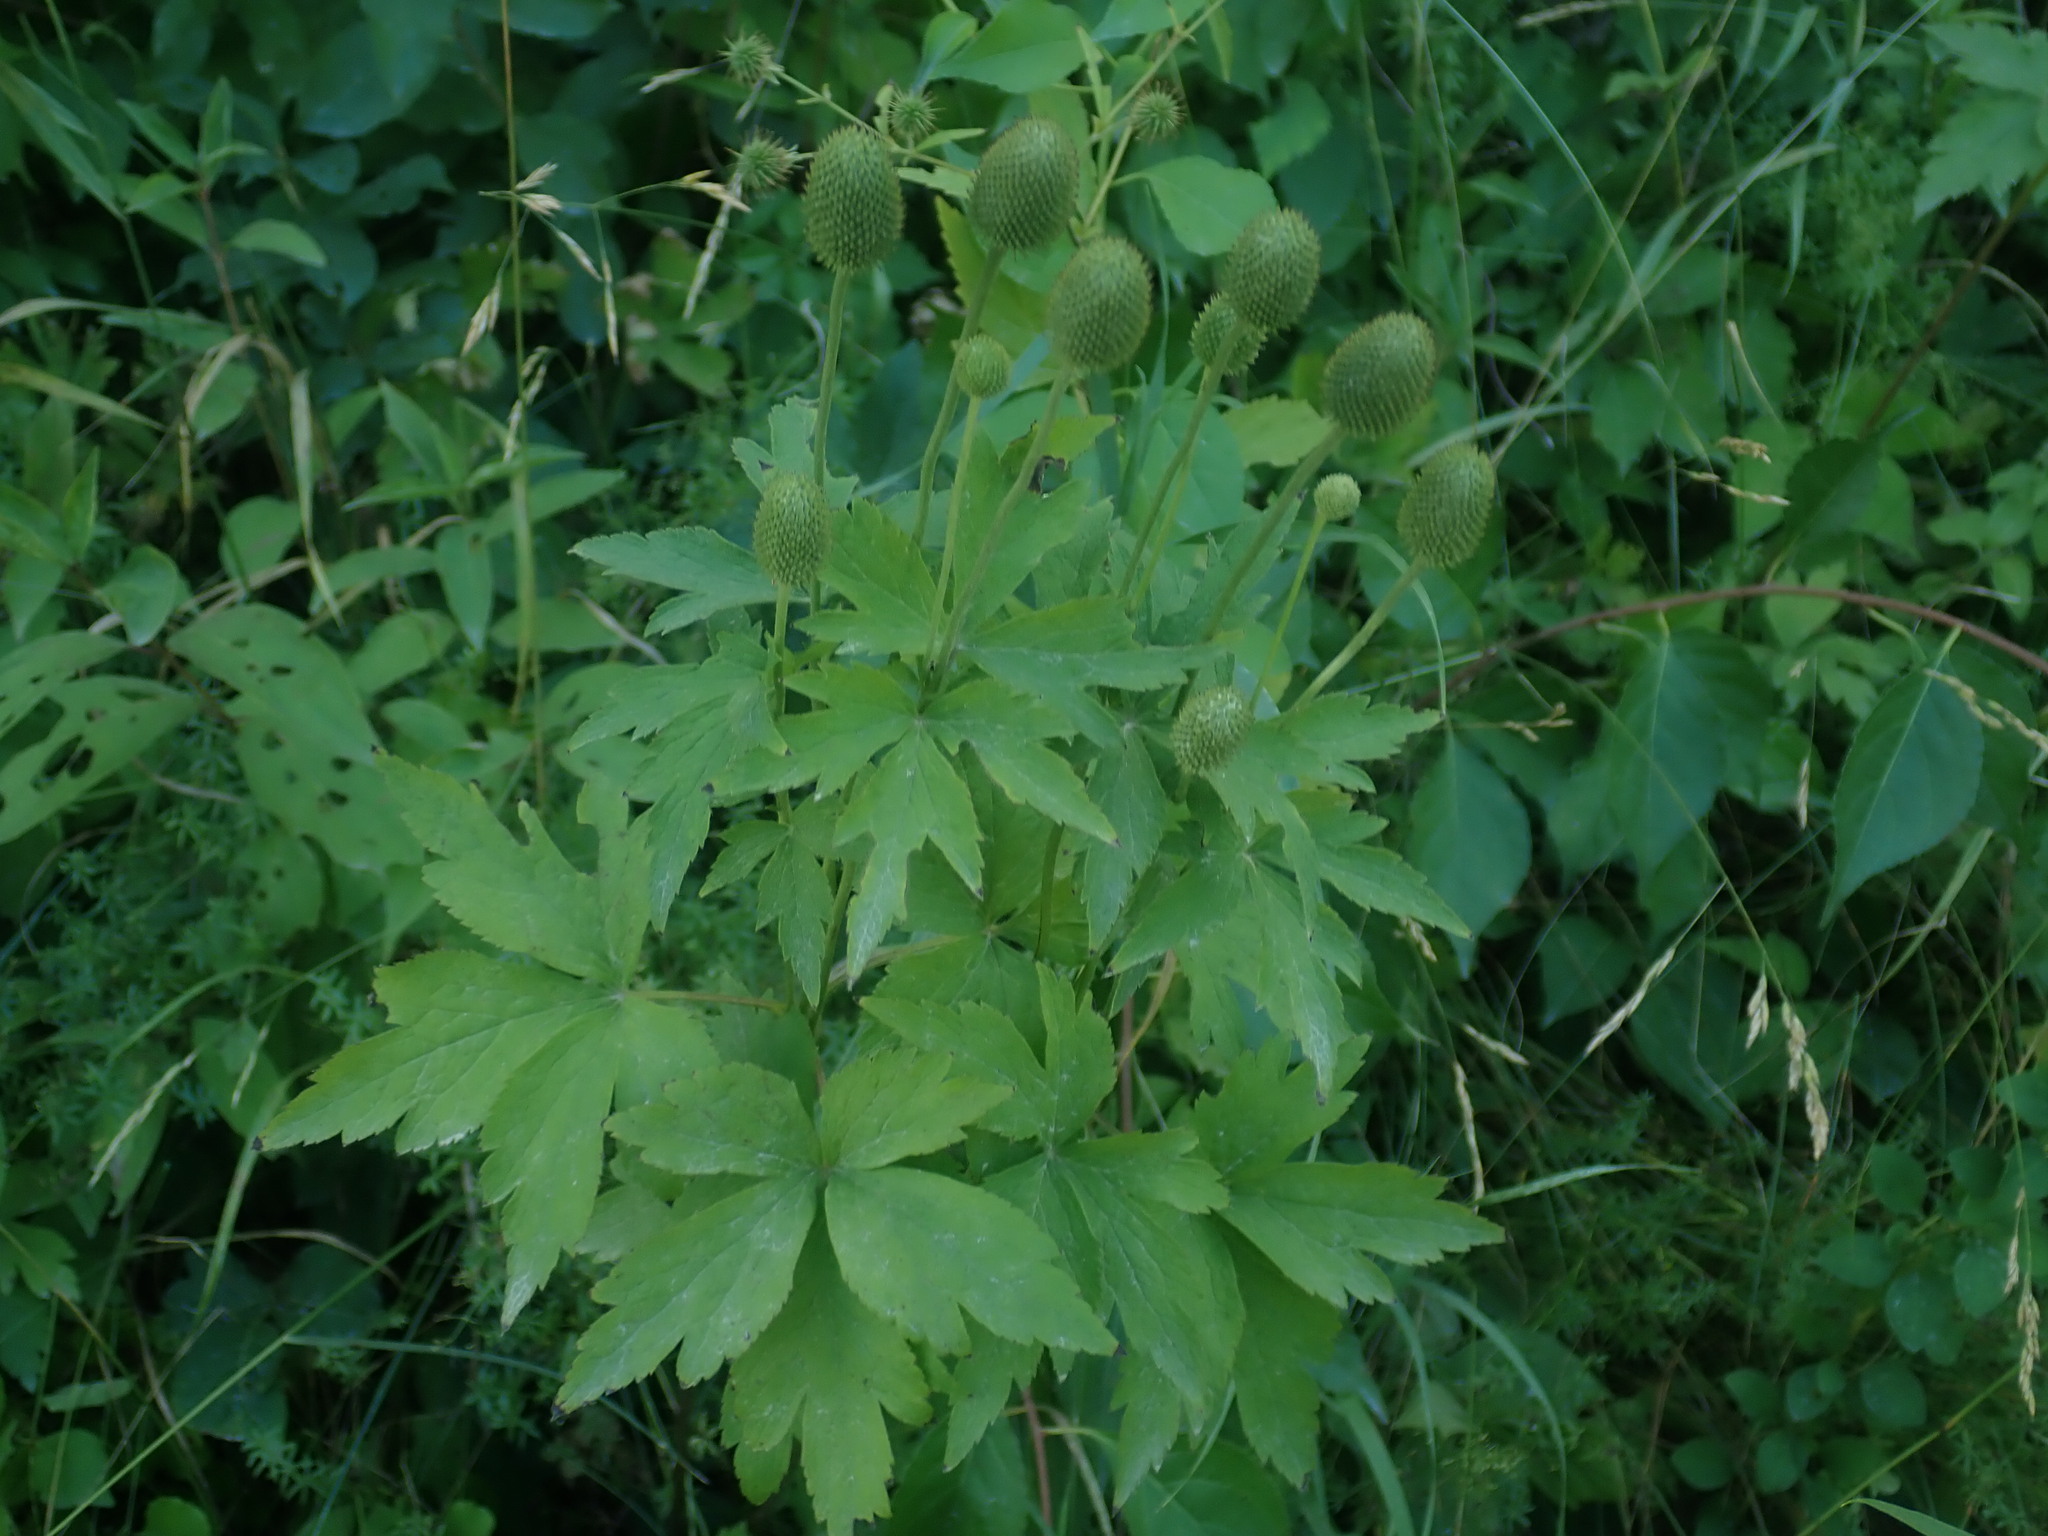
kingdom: Plantae
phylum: Tracheophyta
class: Magnoliopsida
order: Ranunculales
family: Ranunculaceae
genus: Anemone
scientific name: Anemone virginiana
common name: Tall anemone
